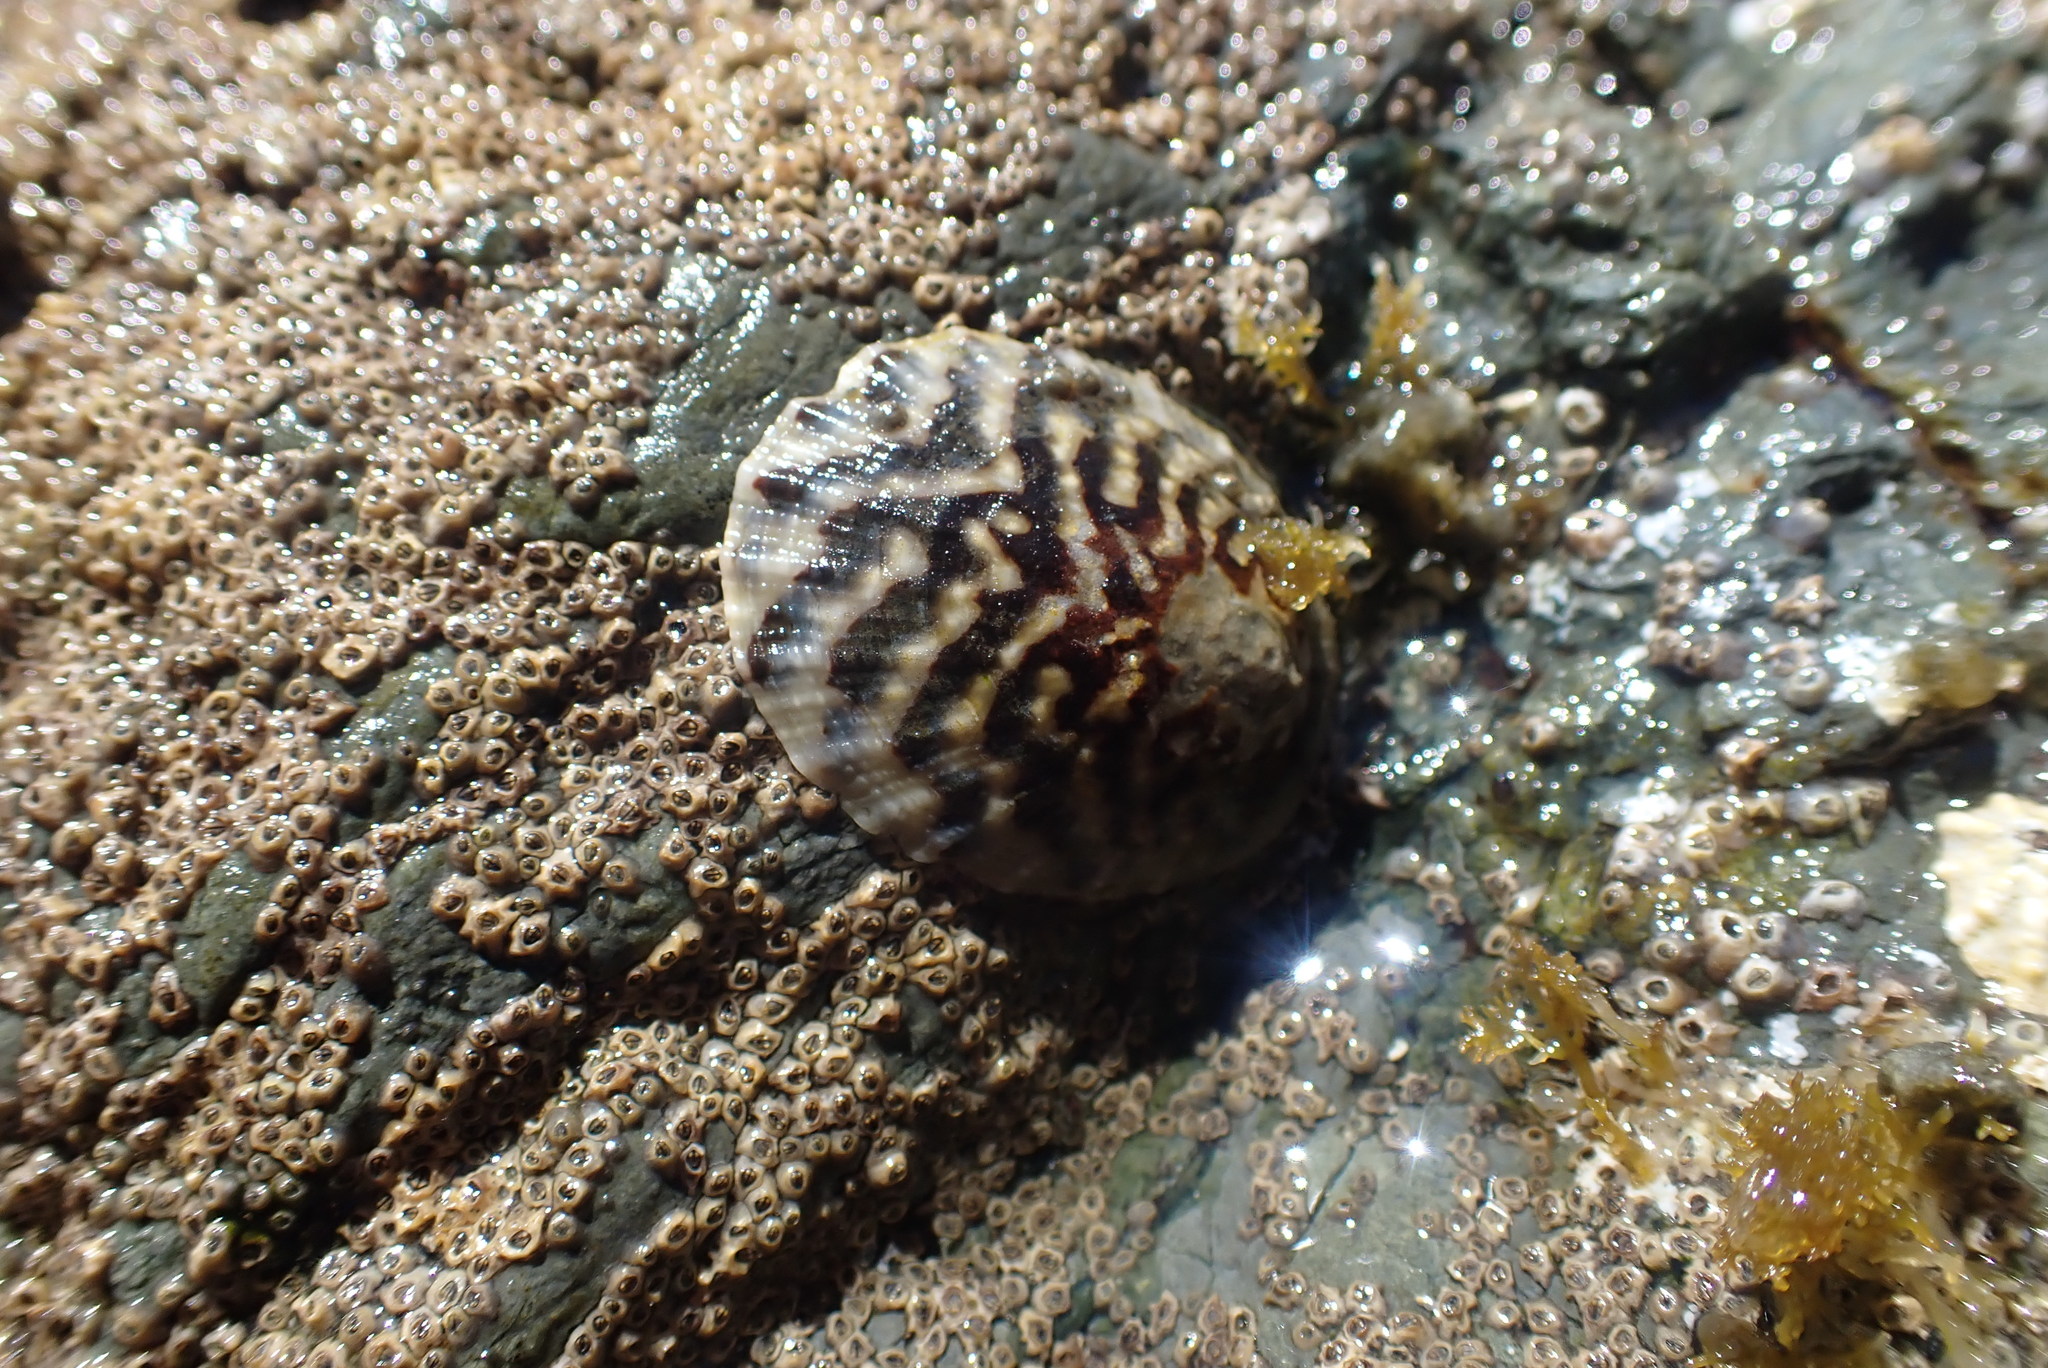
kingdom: Animalia
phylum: Mollusca
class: Gastropoda
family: Nacellidae
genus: Cellana
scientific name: Cellana radians
